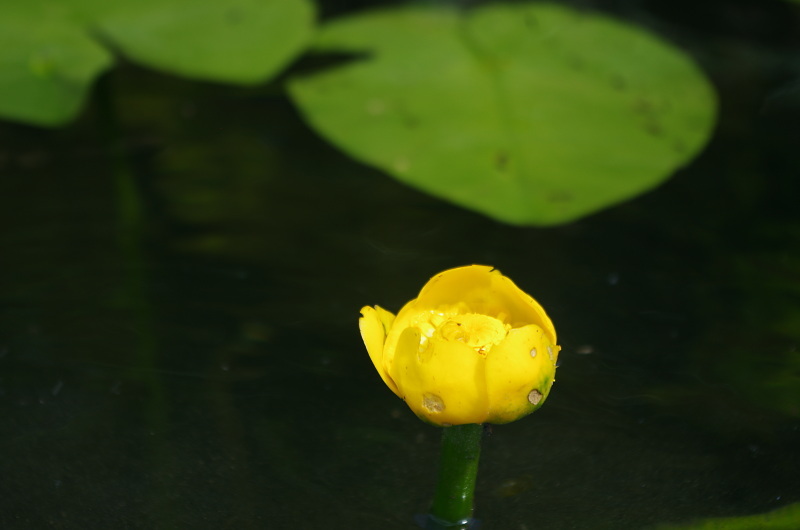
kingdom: Plantae
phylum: Tracheophyta
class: Magnoliopsida
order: Nymphaeales
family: Nymphaeaceae
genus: Nuphar
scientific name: Nuphar lutea
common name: Yellow water-lily
